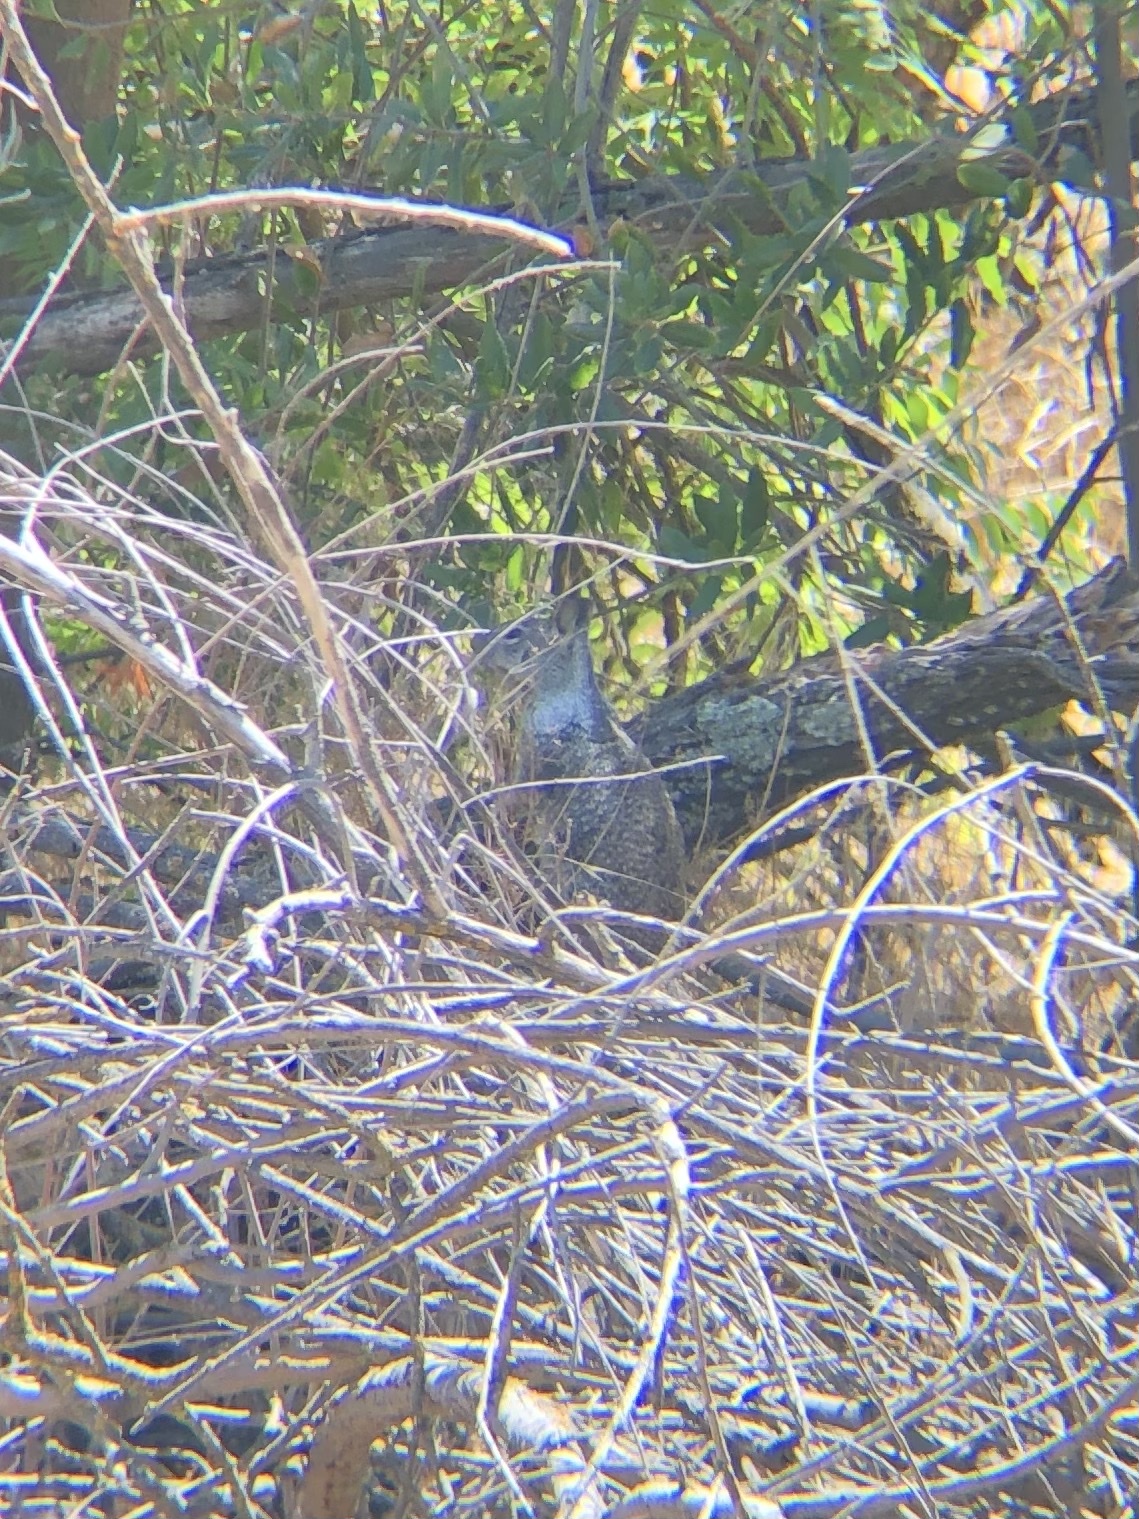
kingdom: Animalia
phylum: Chordata
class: Mammalia
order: Rodentia
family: Sciuridae
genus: Otospermophilus
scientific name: Otospermophilus beecheyi
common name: California ground squirrel
